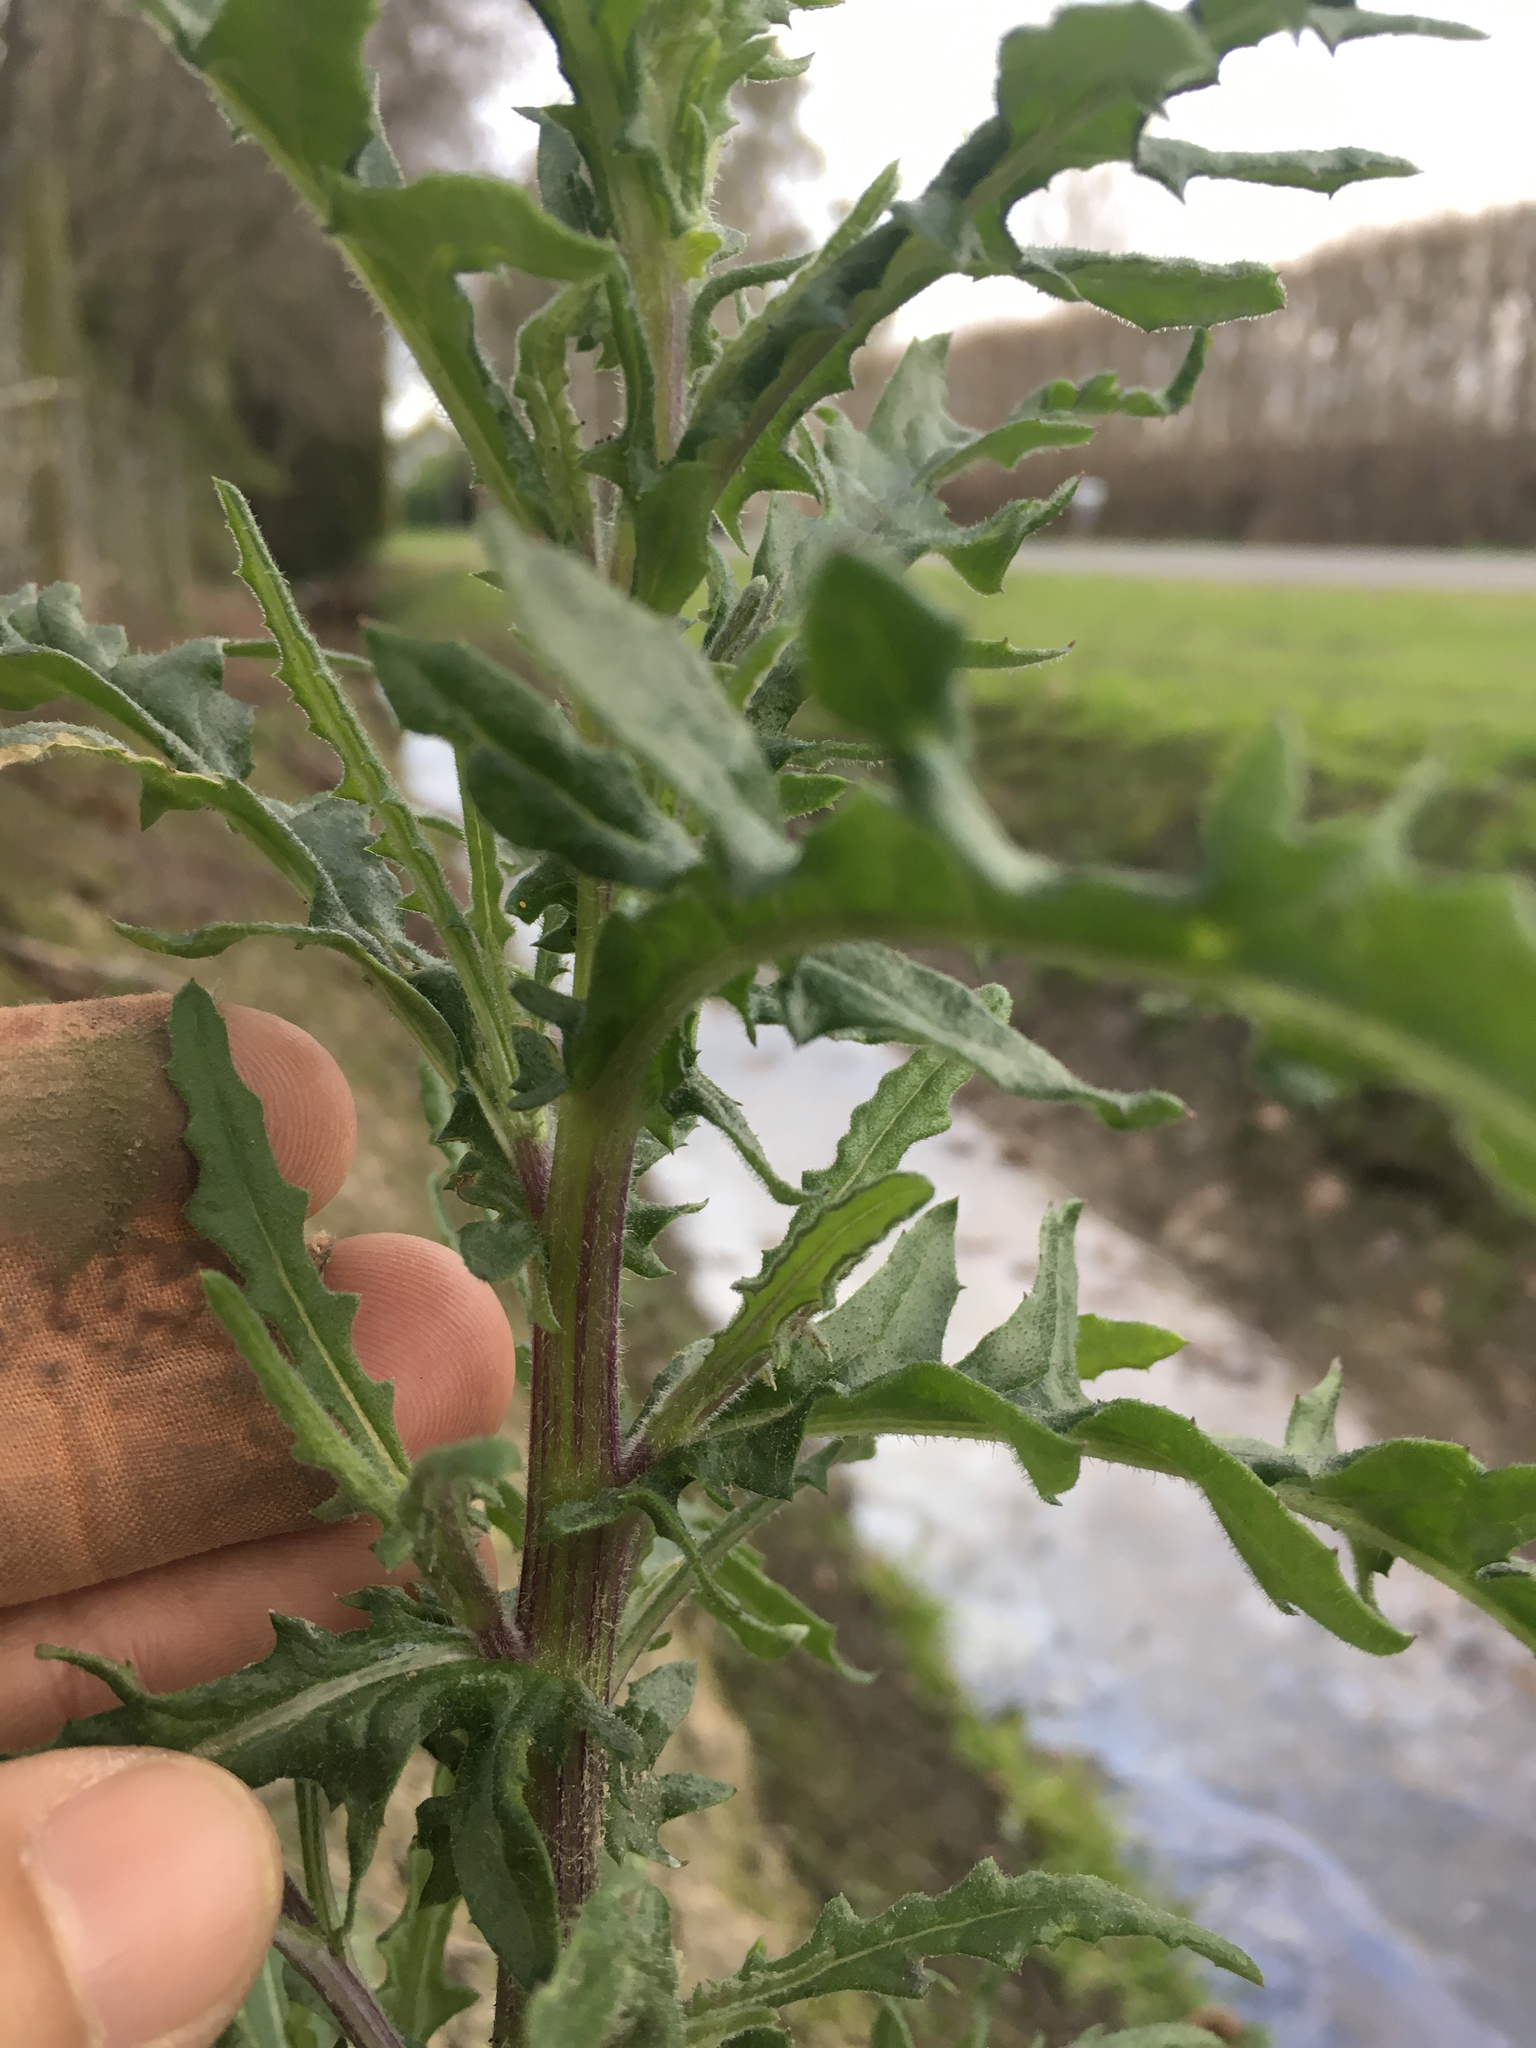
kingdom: Plantae
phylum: Tracheophyta
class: Magnoliopsida
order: Asterales
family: Asteraceae
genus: Senecio
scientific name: Senecio hispidulus
